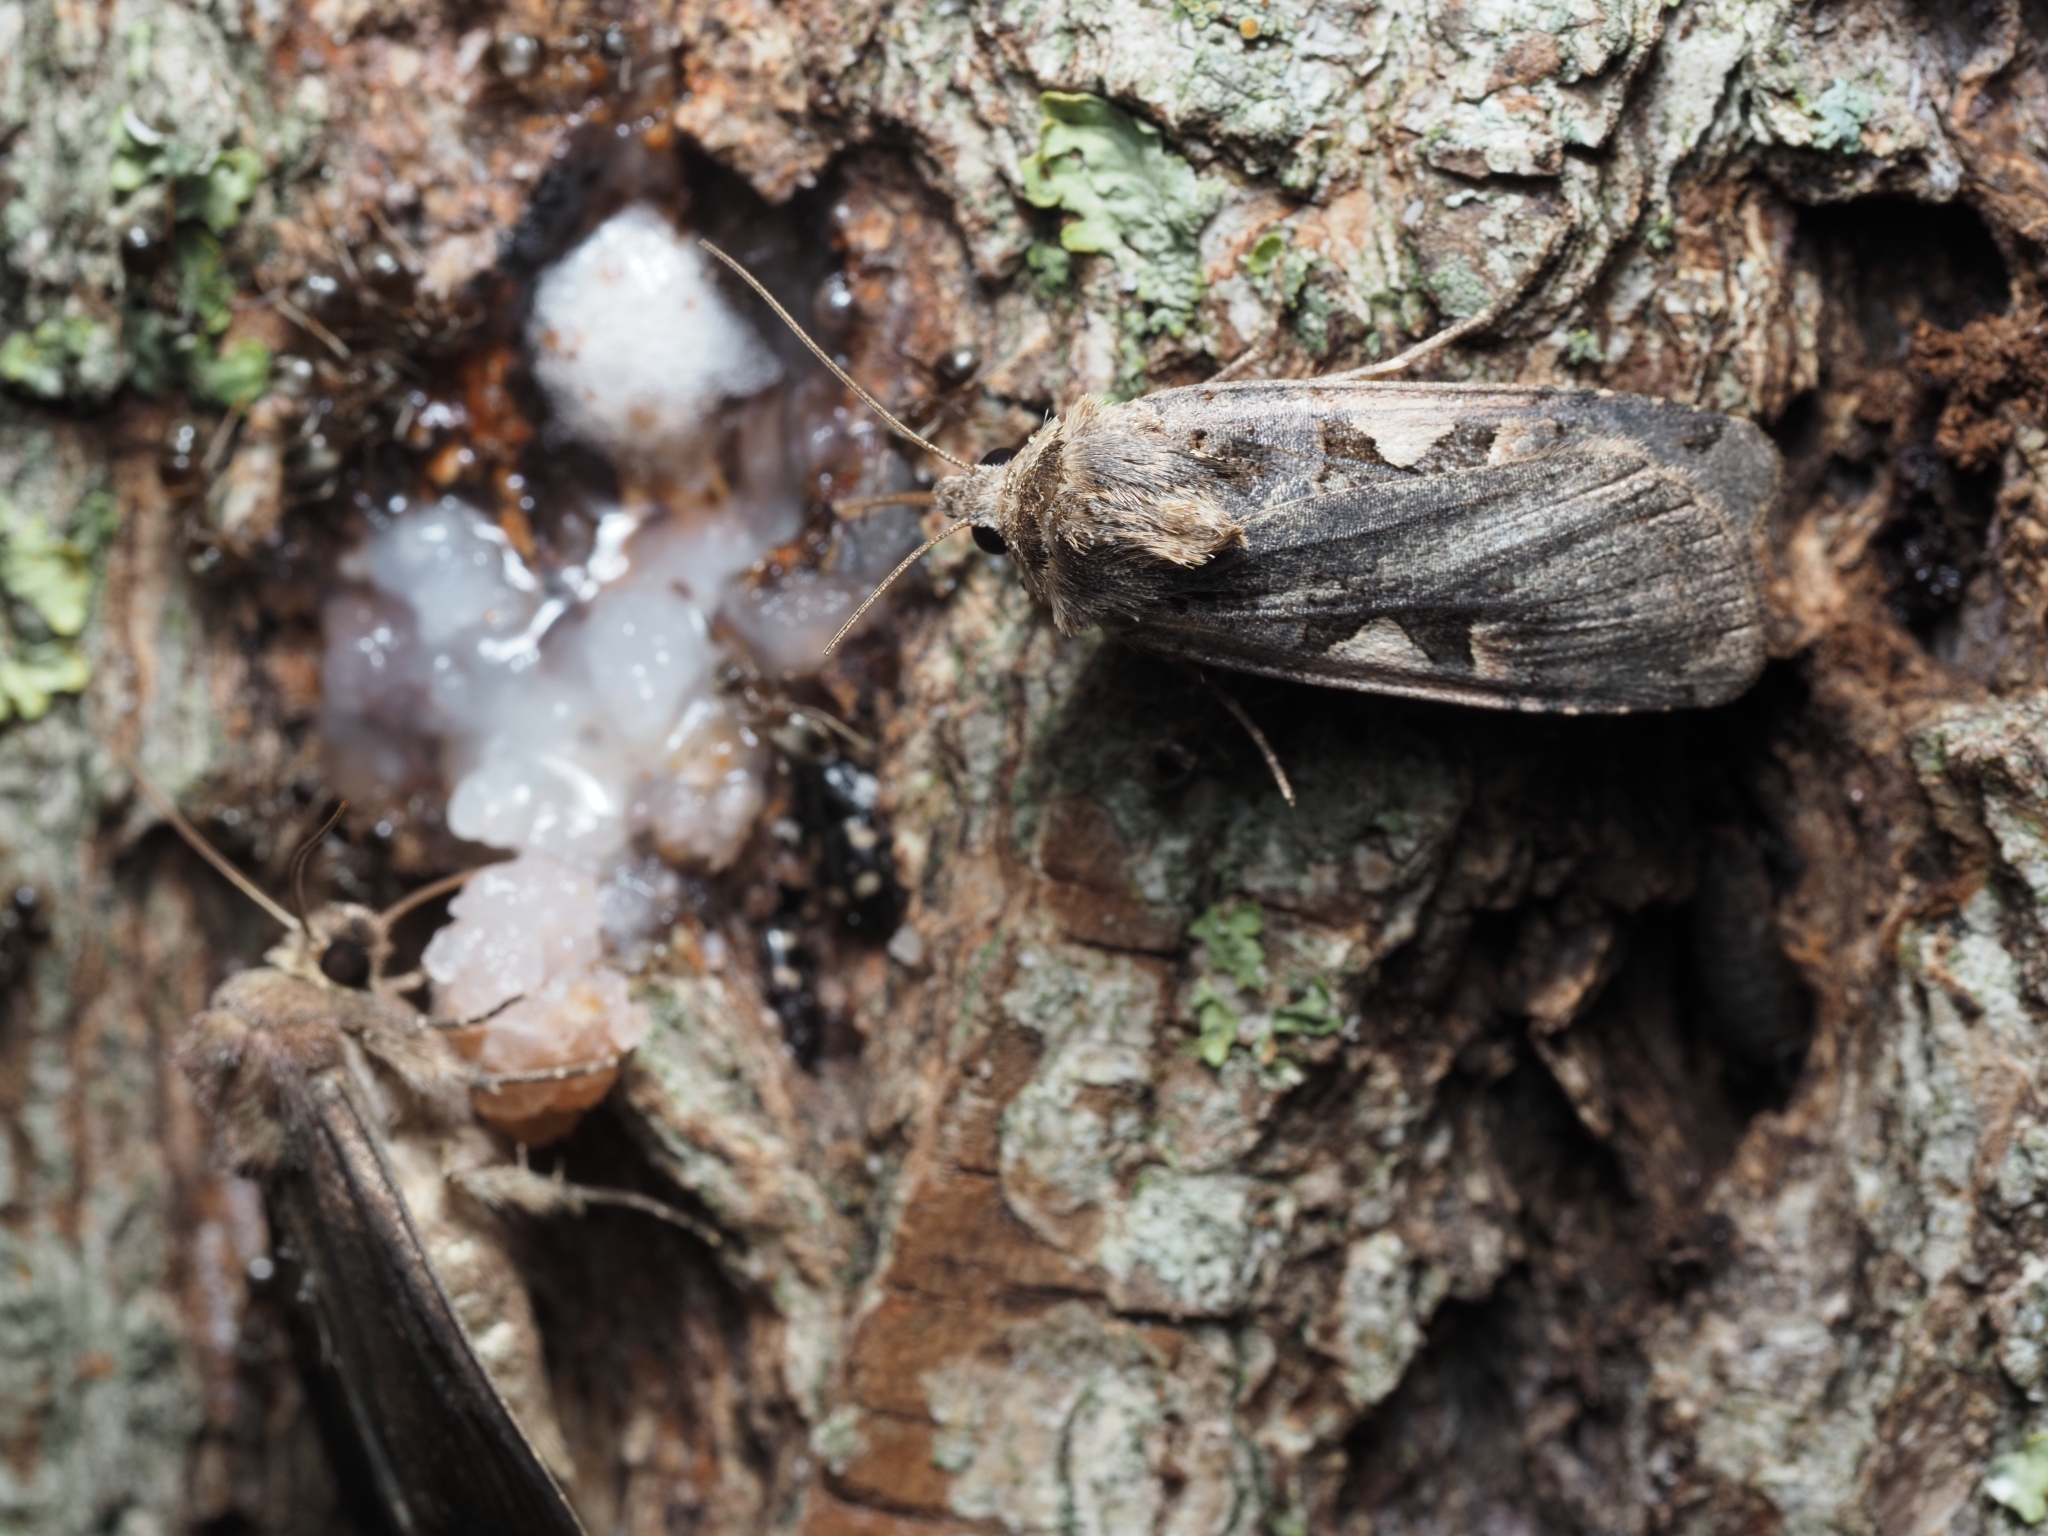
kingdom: Animalia
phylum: Arthropoda
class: Insecta
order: Lepidoptera
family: Noctuidae
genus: Xestia
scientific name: Xestia c-nigrum
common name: Setaceous hebrew character
